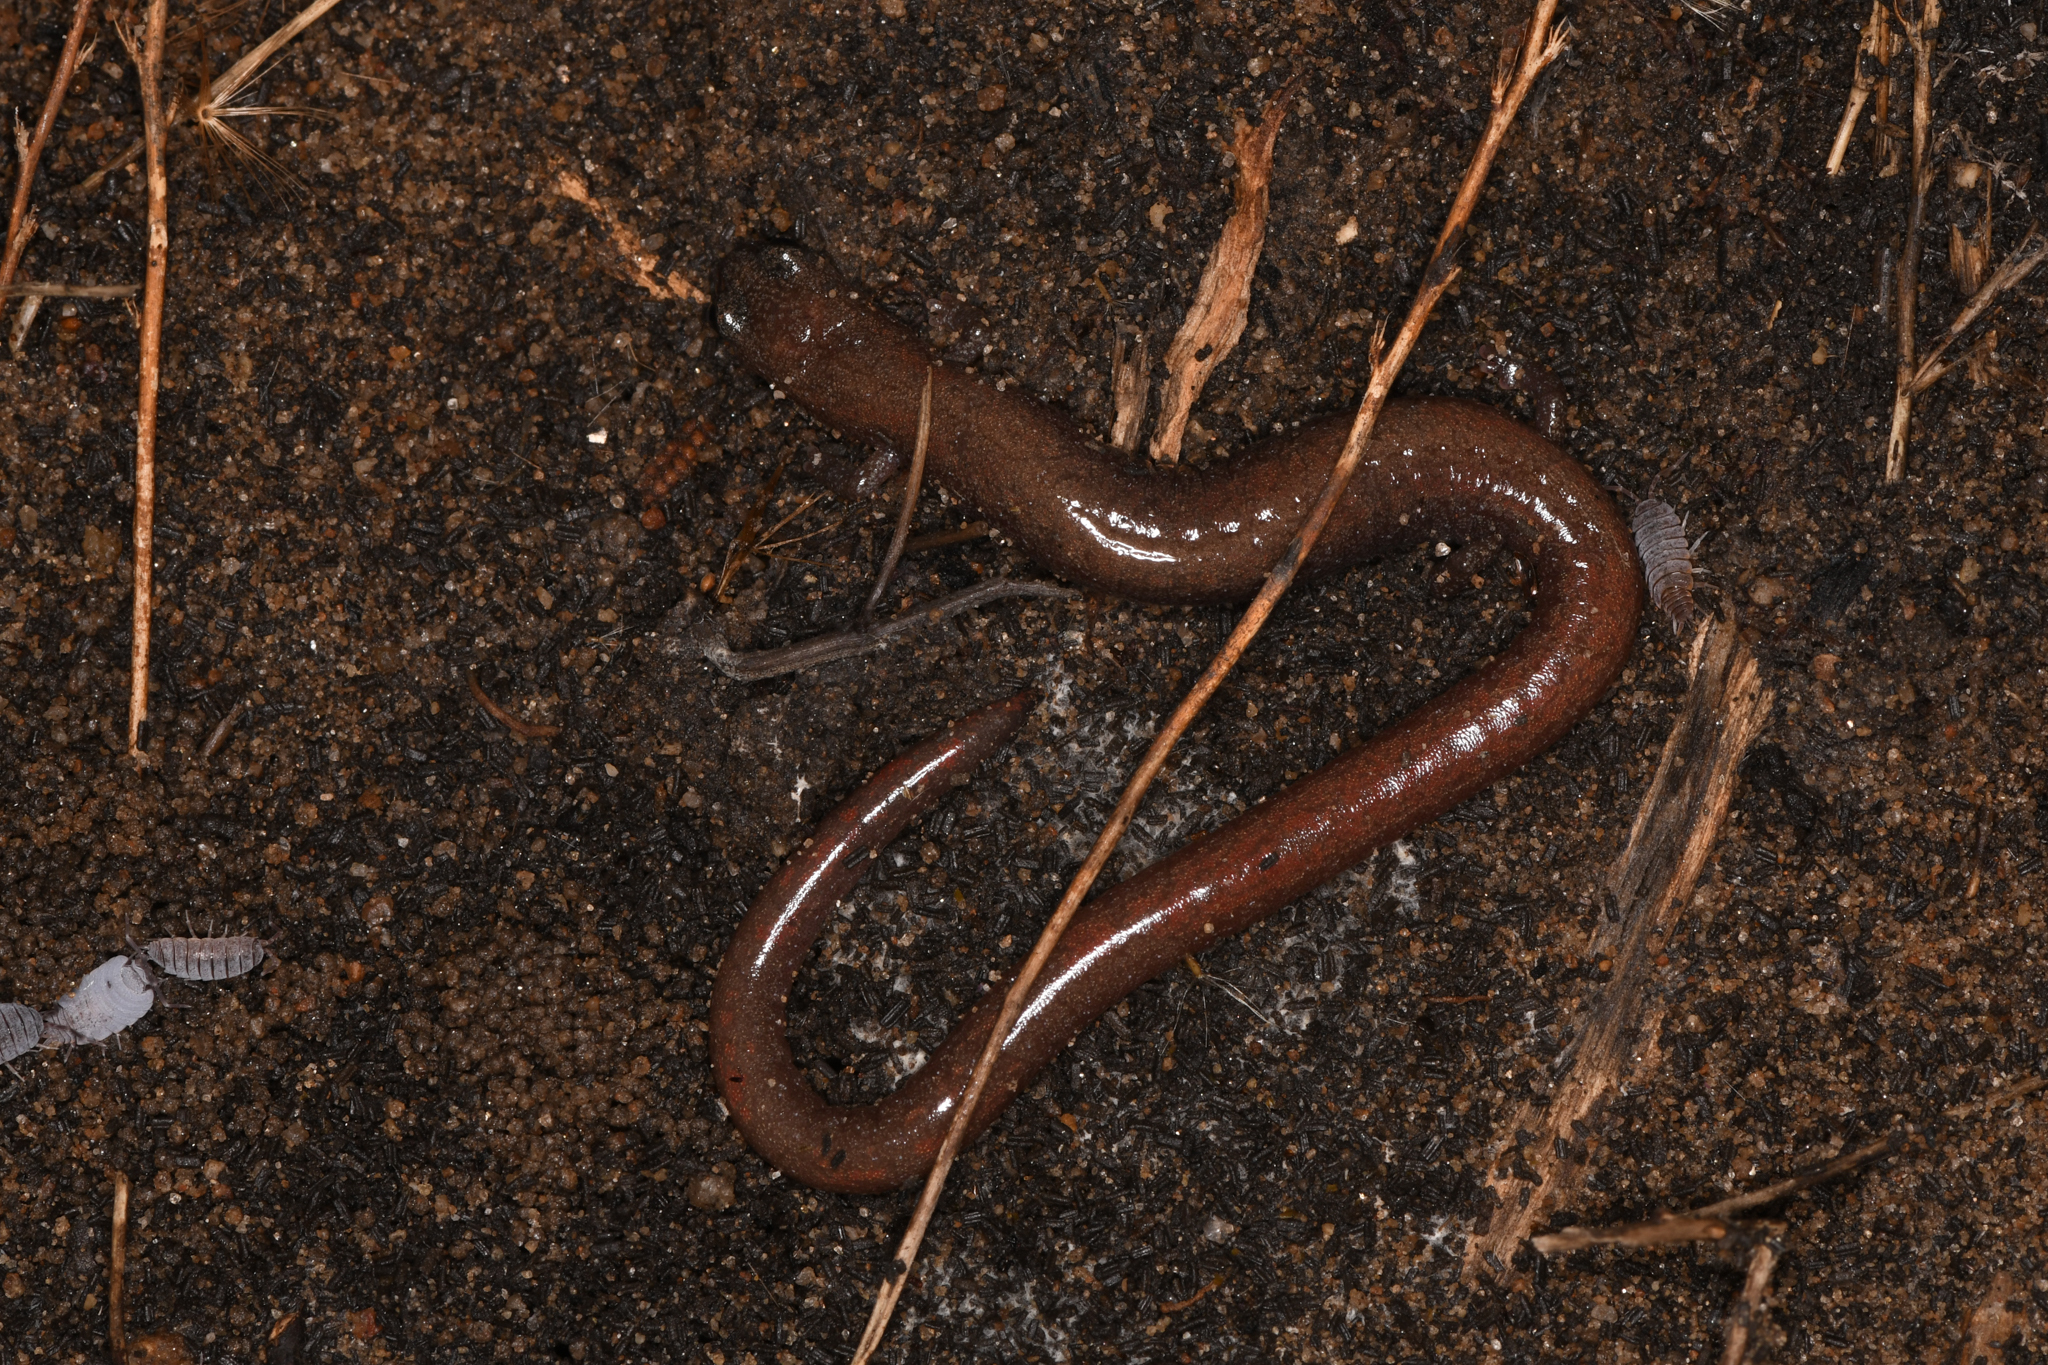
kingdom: Animalia
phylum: Chordata
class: Amphibia
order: Caudata
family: Plethodontidae
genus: Batrachoseps
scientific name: Batrachoseps major
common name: Garden slender salamander
